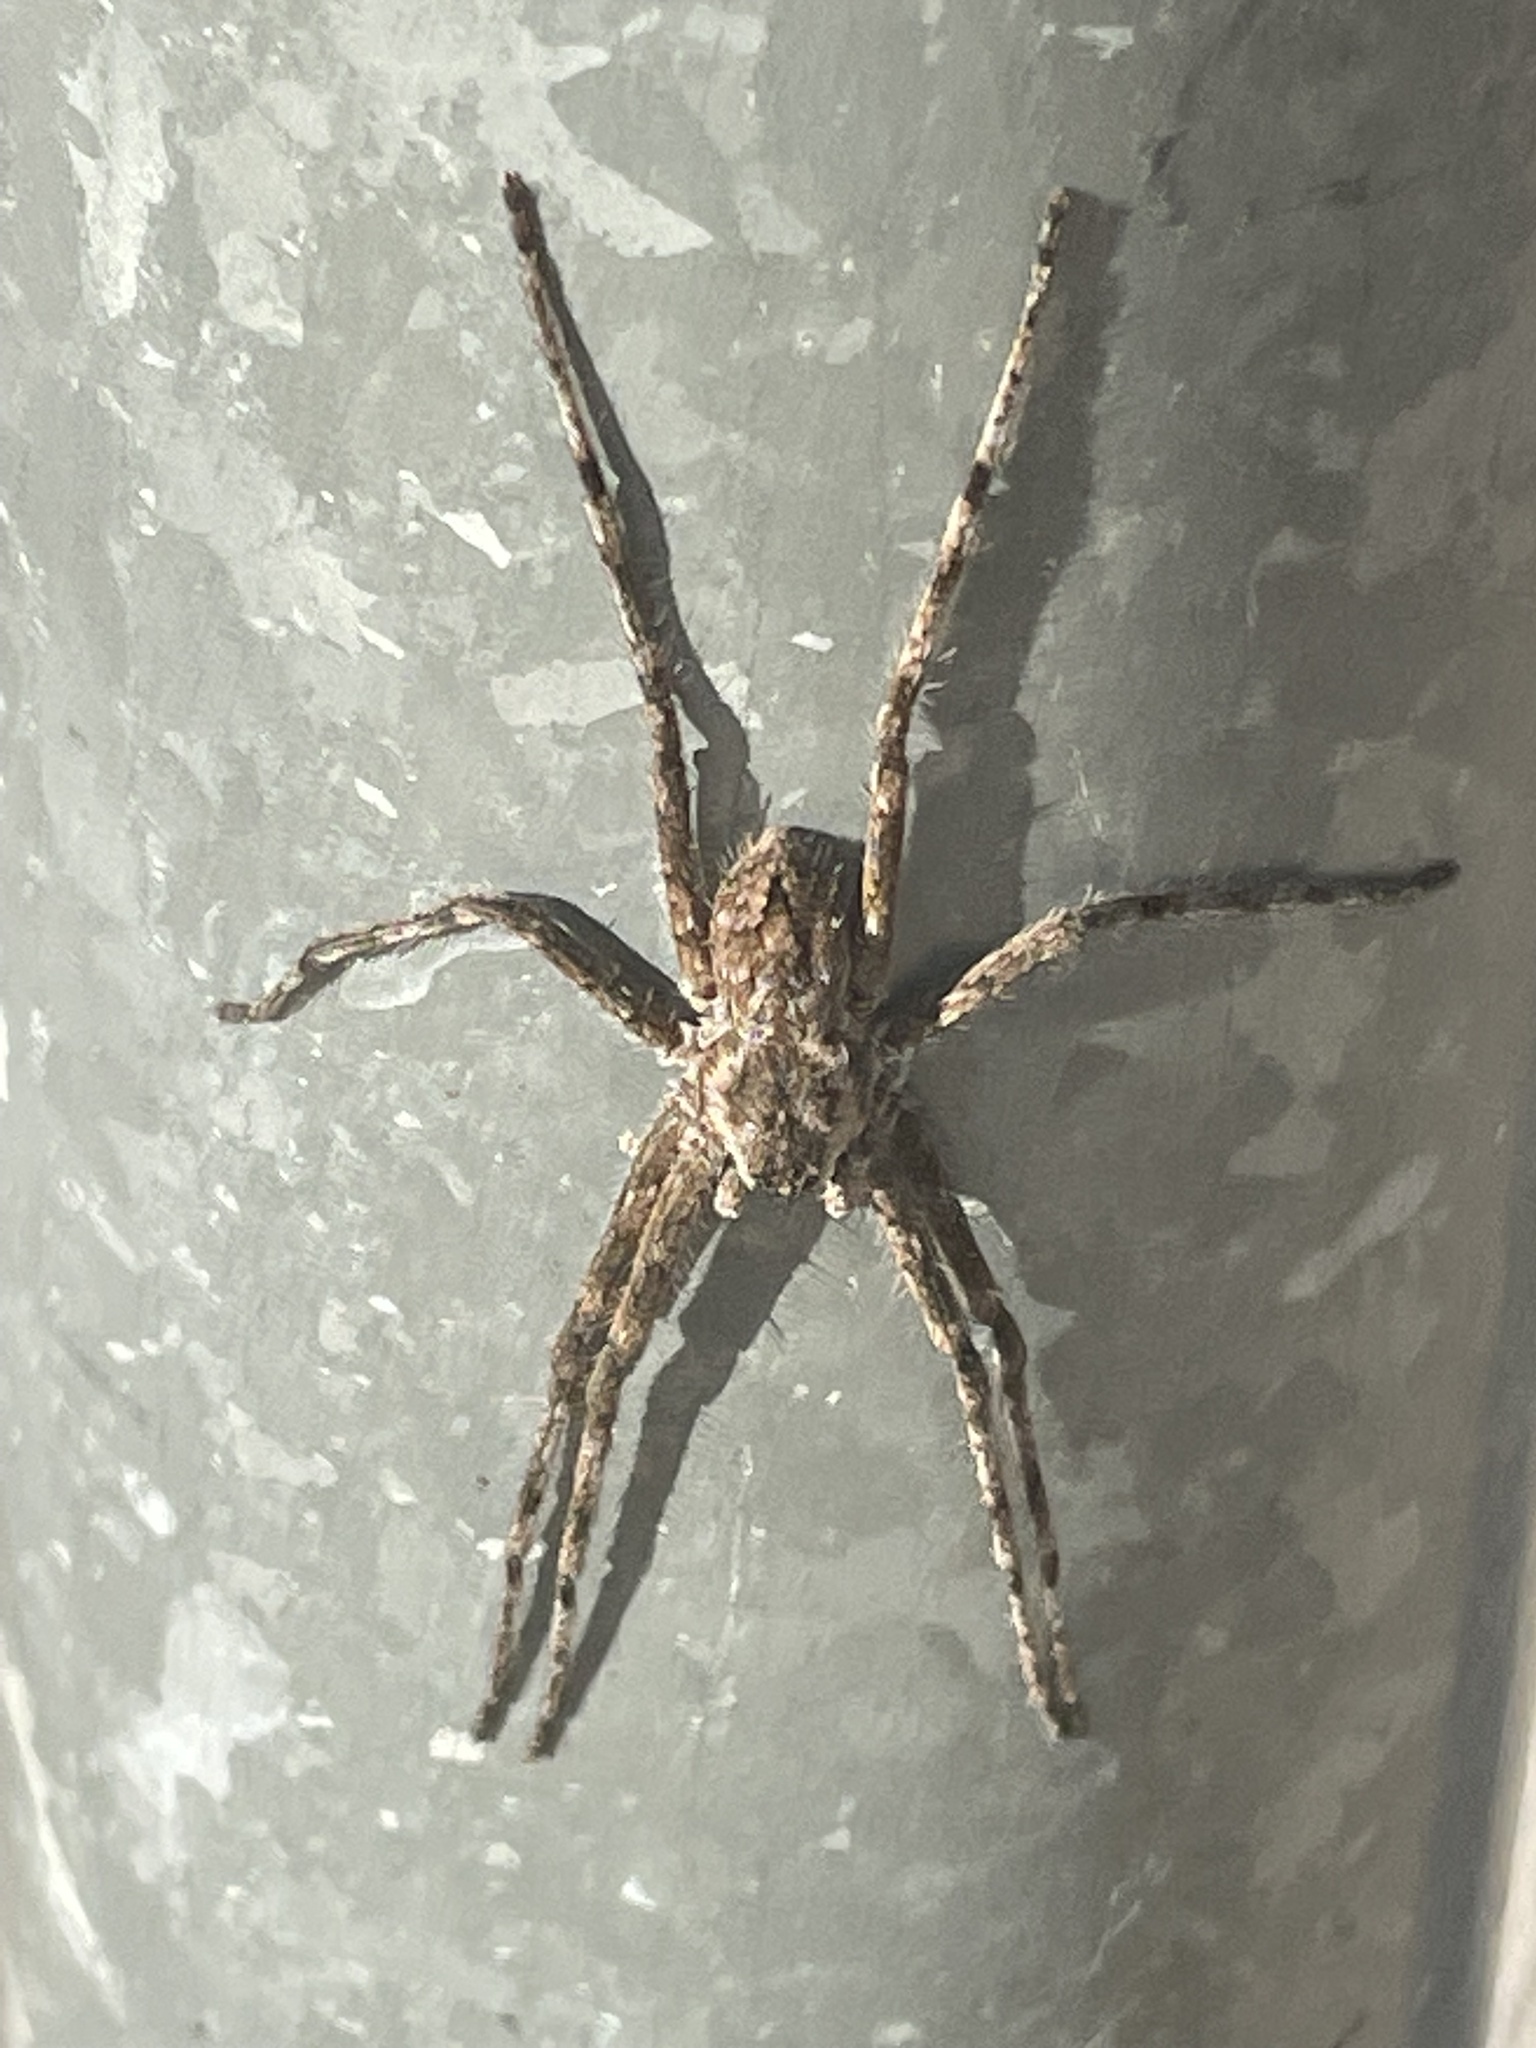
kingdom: Animalia
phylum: Arthropoda
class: Arachnida
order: Araneae
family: Sparassidae
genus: Pediana
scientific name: Pediana regina
